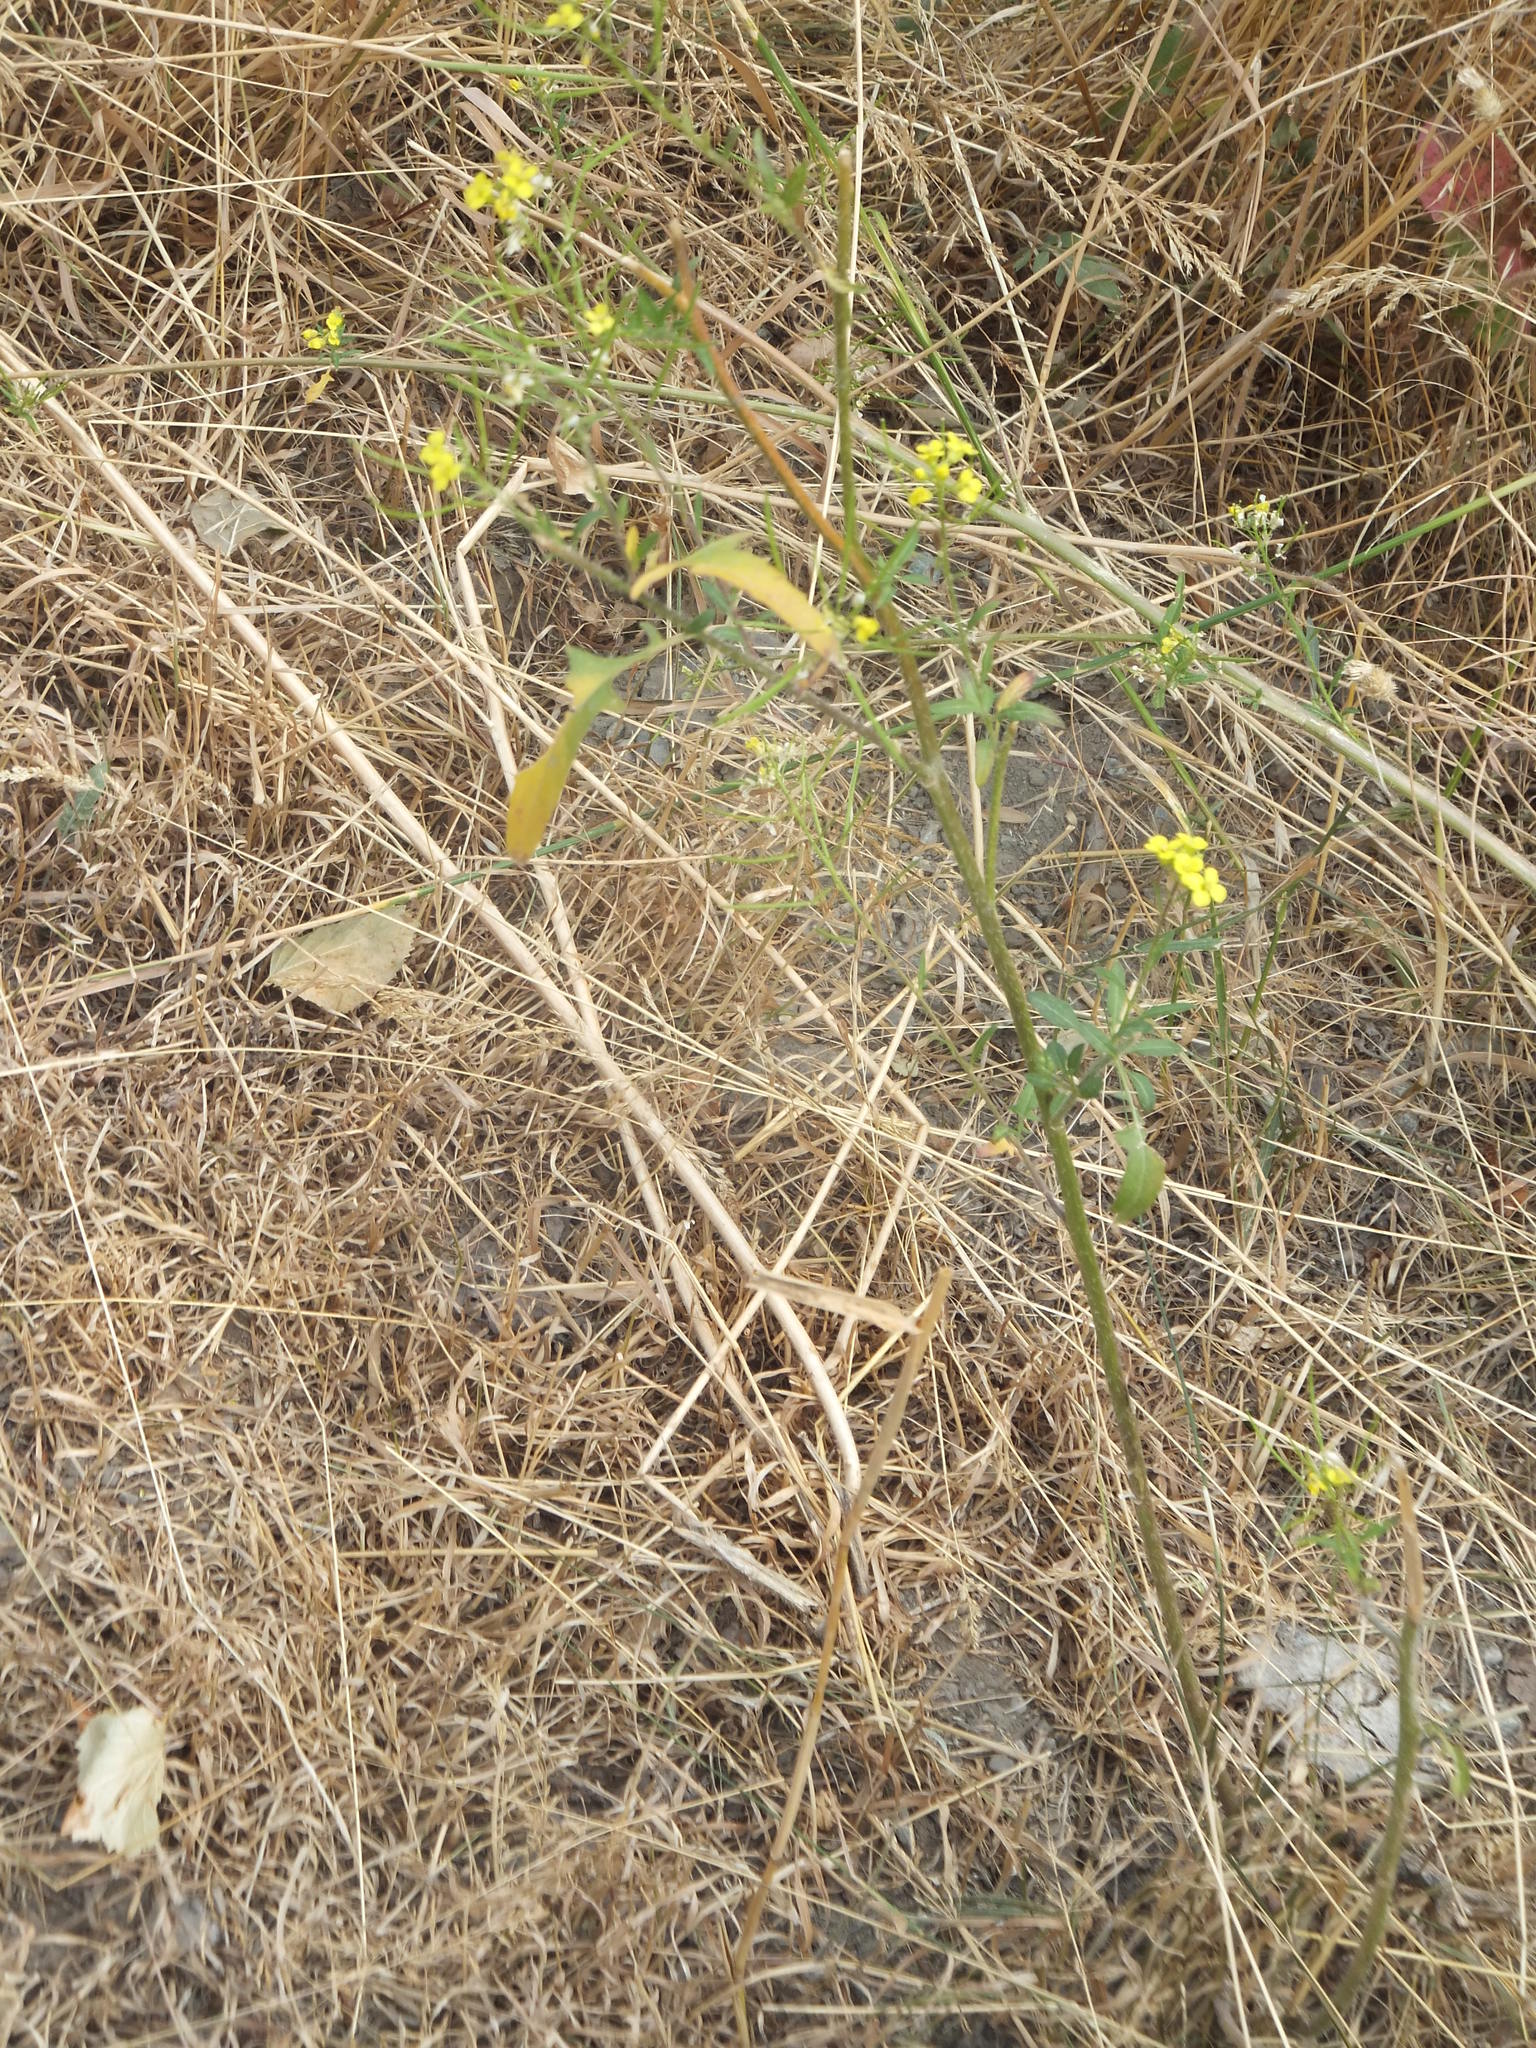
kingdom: Plantae
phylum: Tracheophyta
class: Magnoliopsida
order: Brassicales
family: Brassicaceae
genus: Sisymbrium
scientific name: Sisymbrium loeselii
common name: False london-rocket
